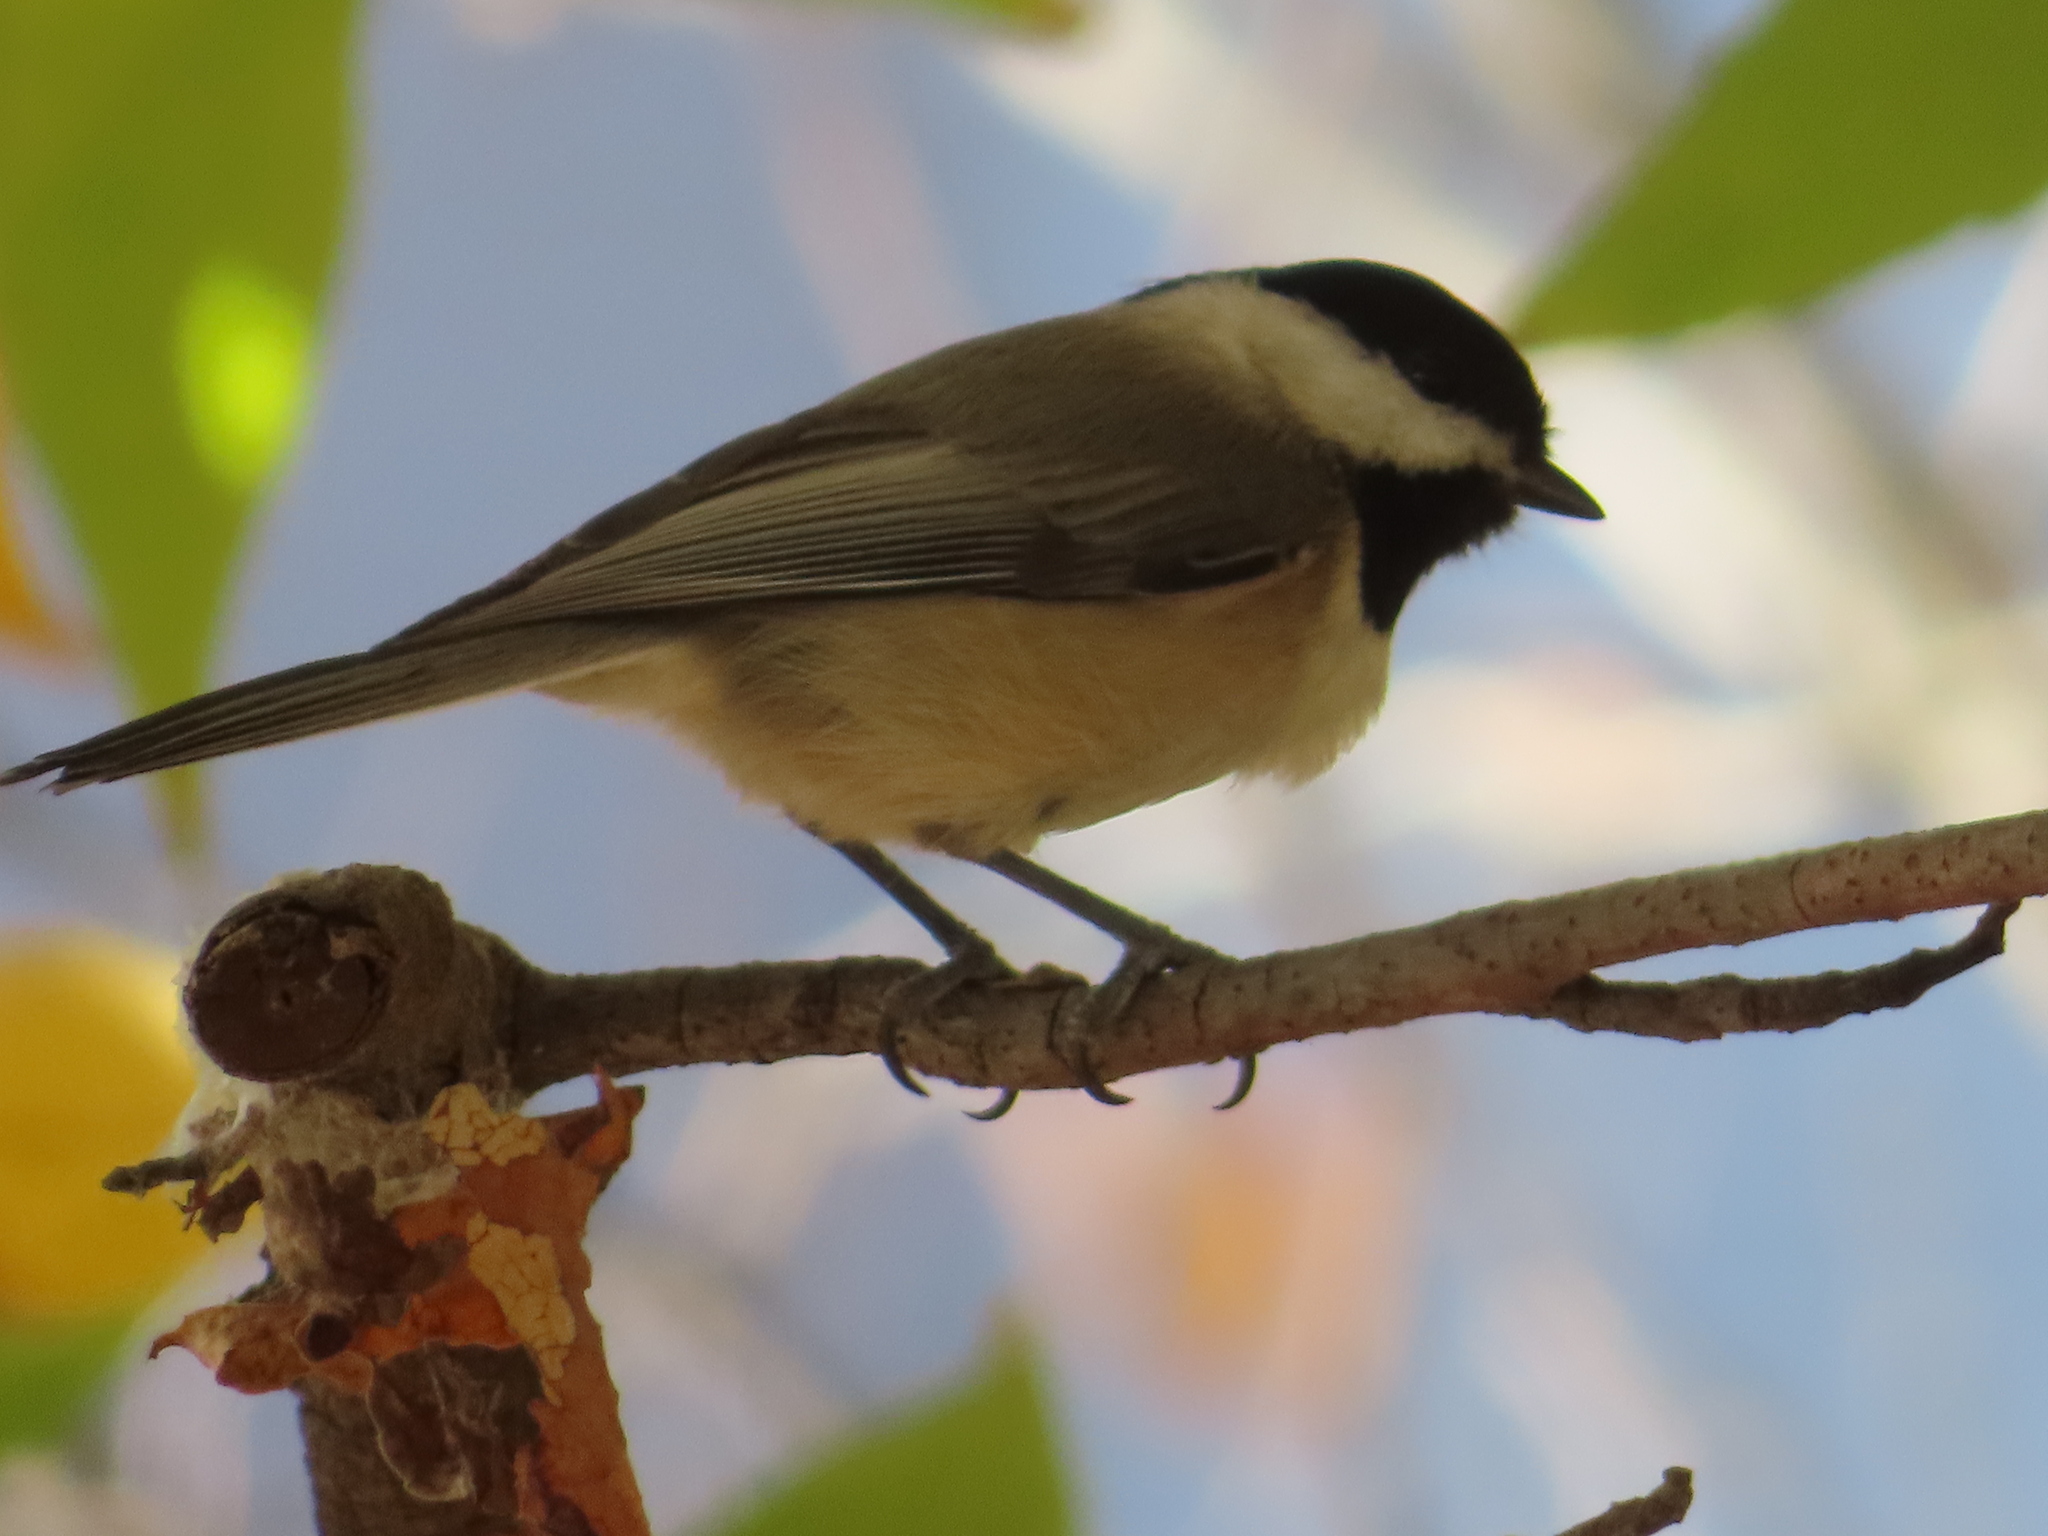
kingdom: Animalia
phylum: Chordata
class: Aves
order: Passeriformes
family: Paridae
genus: Poecile
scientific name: Poecile carolinensis
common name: Carolina chickadee
